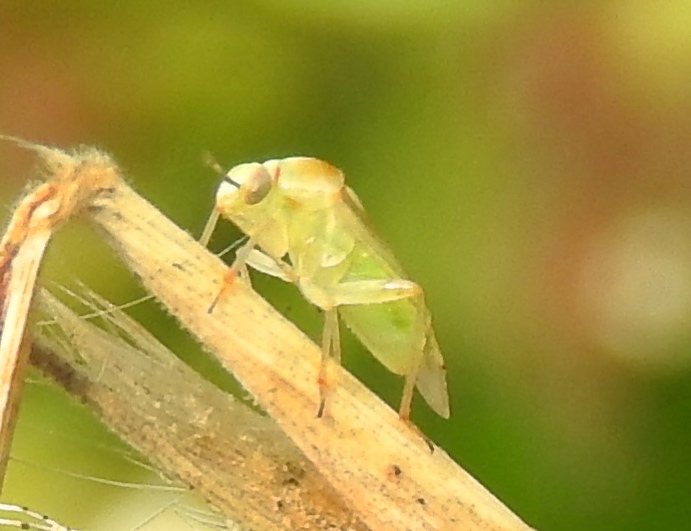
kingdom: Animalia
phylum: Arthropoda
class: Insecta
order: Hemiptera
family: Miridae
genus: Proba
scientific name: Proba distanti
